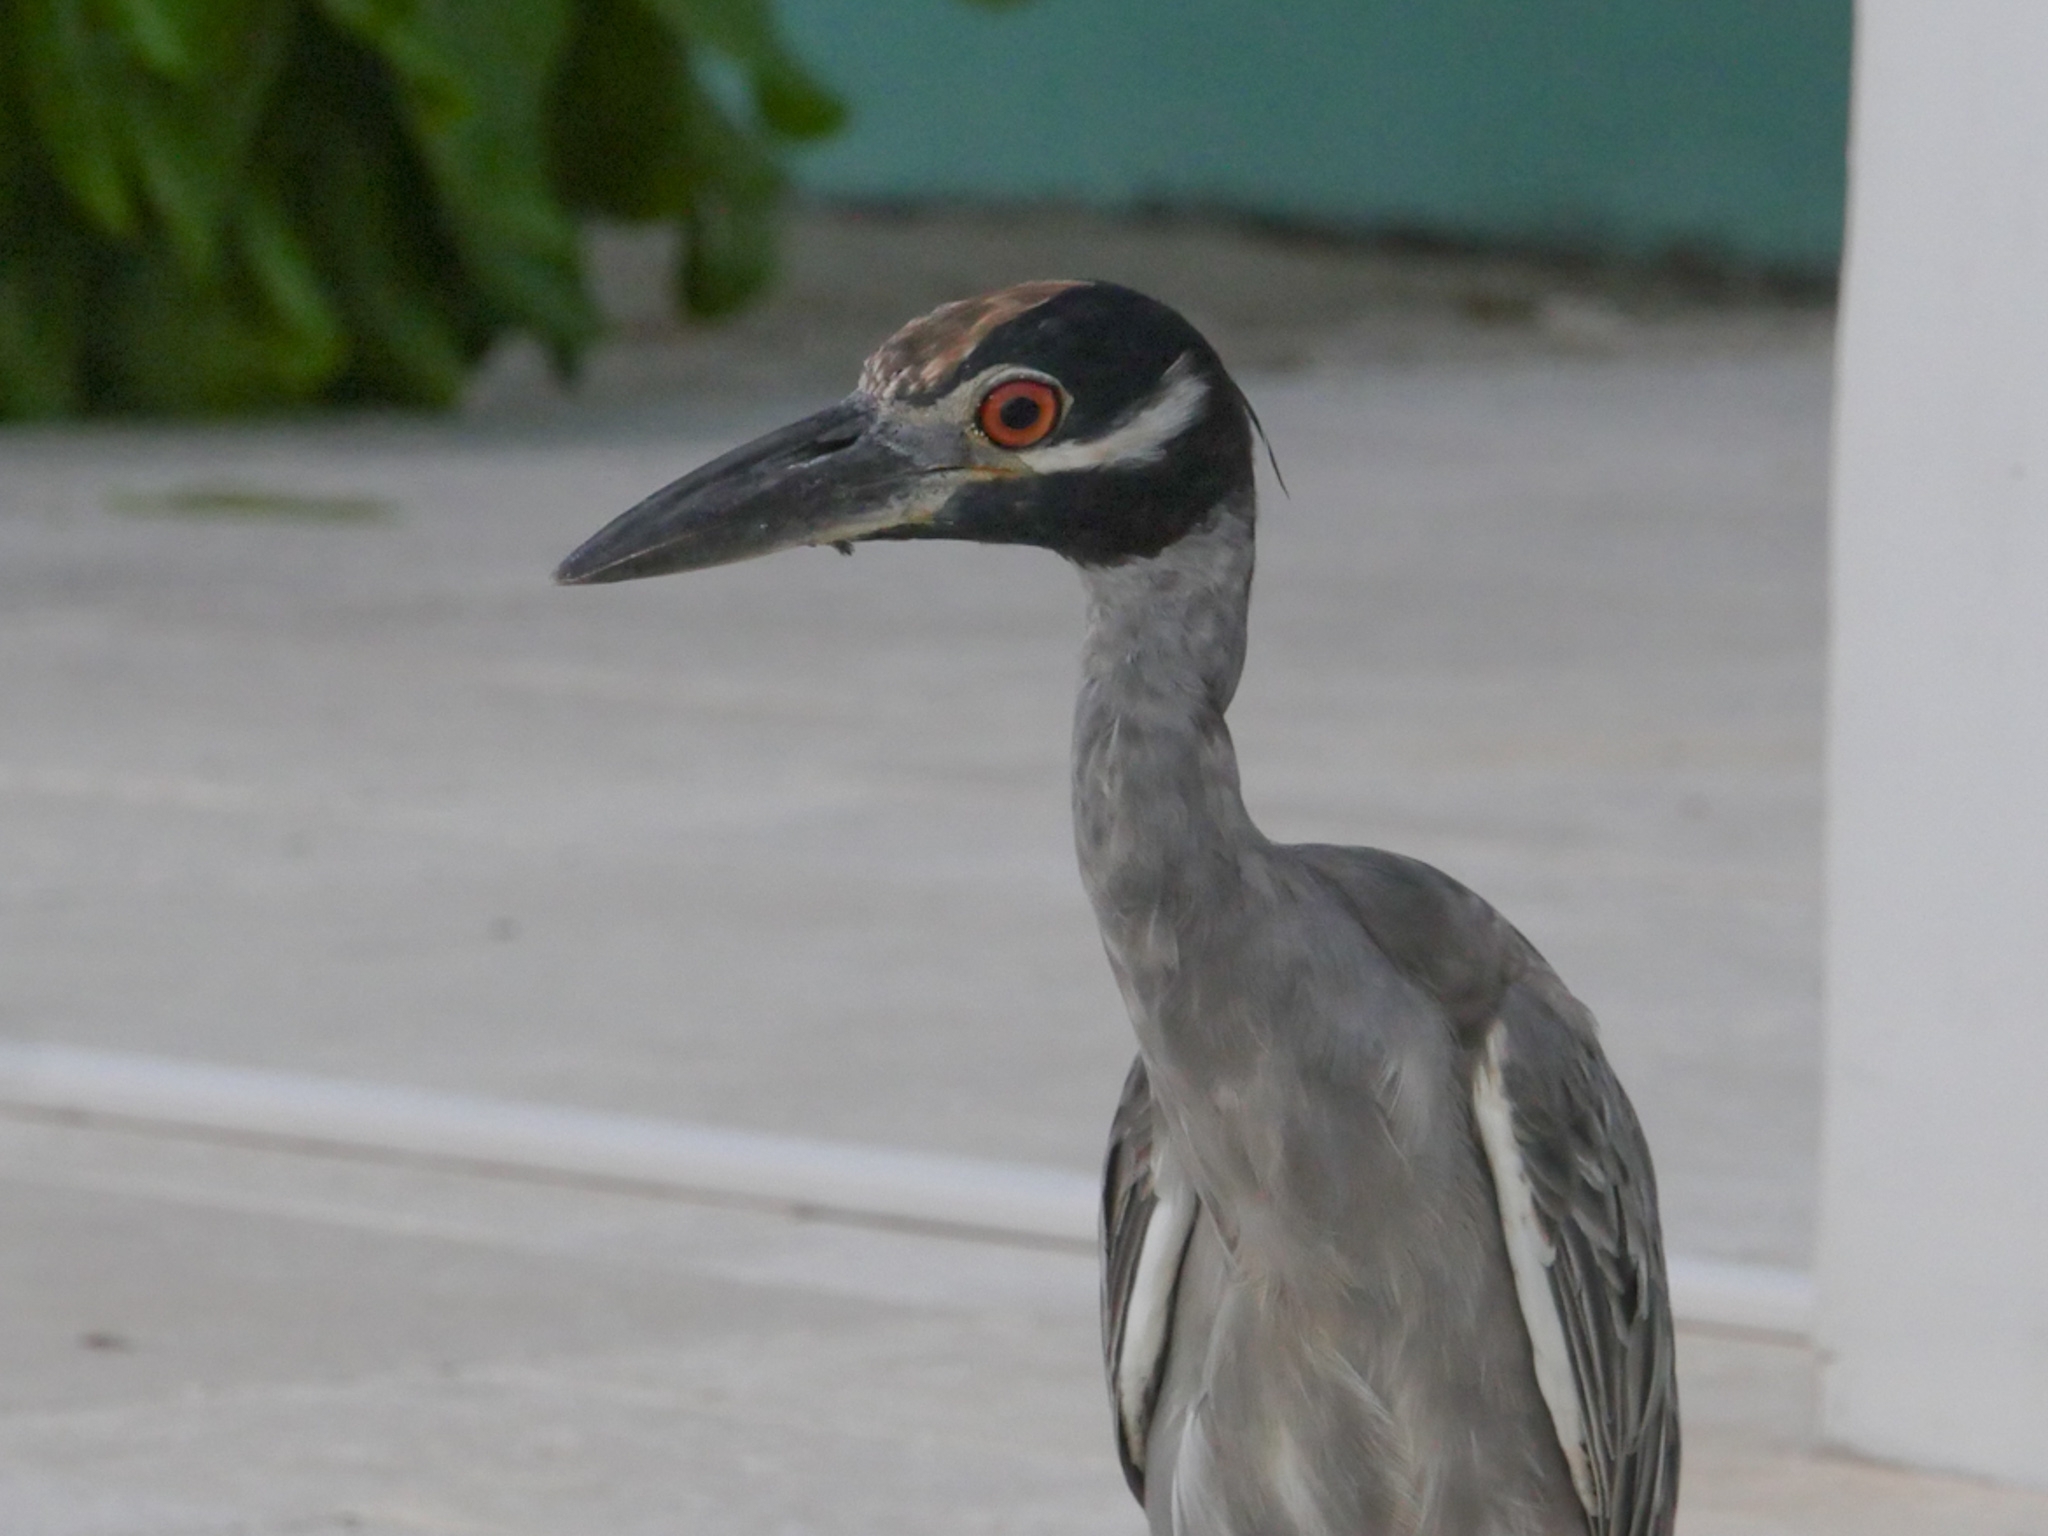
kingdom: Animalia
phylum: Chordata
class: Aves
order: Pelecaniformes
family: Ardeidae
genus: Nyctanassa
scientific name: Nyctanassa violacea
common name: Yellow-crowned night heron
